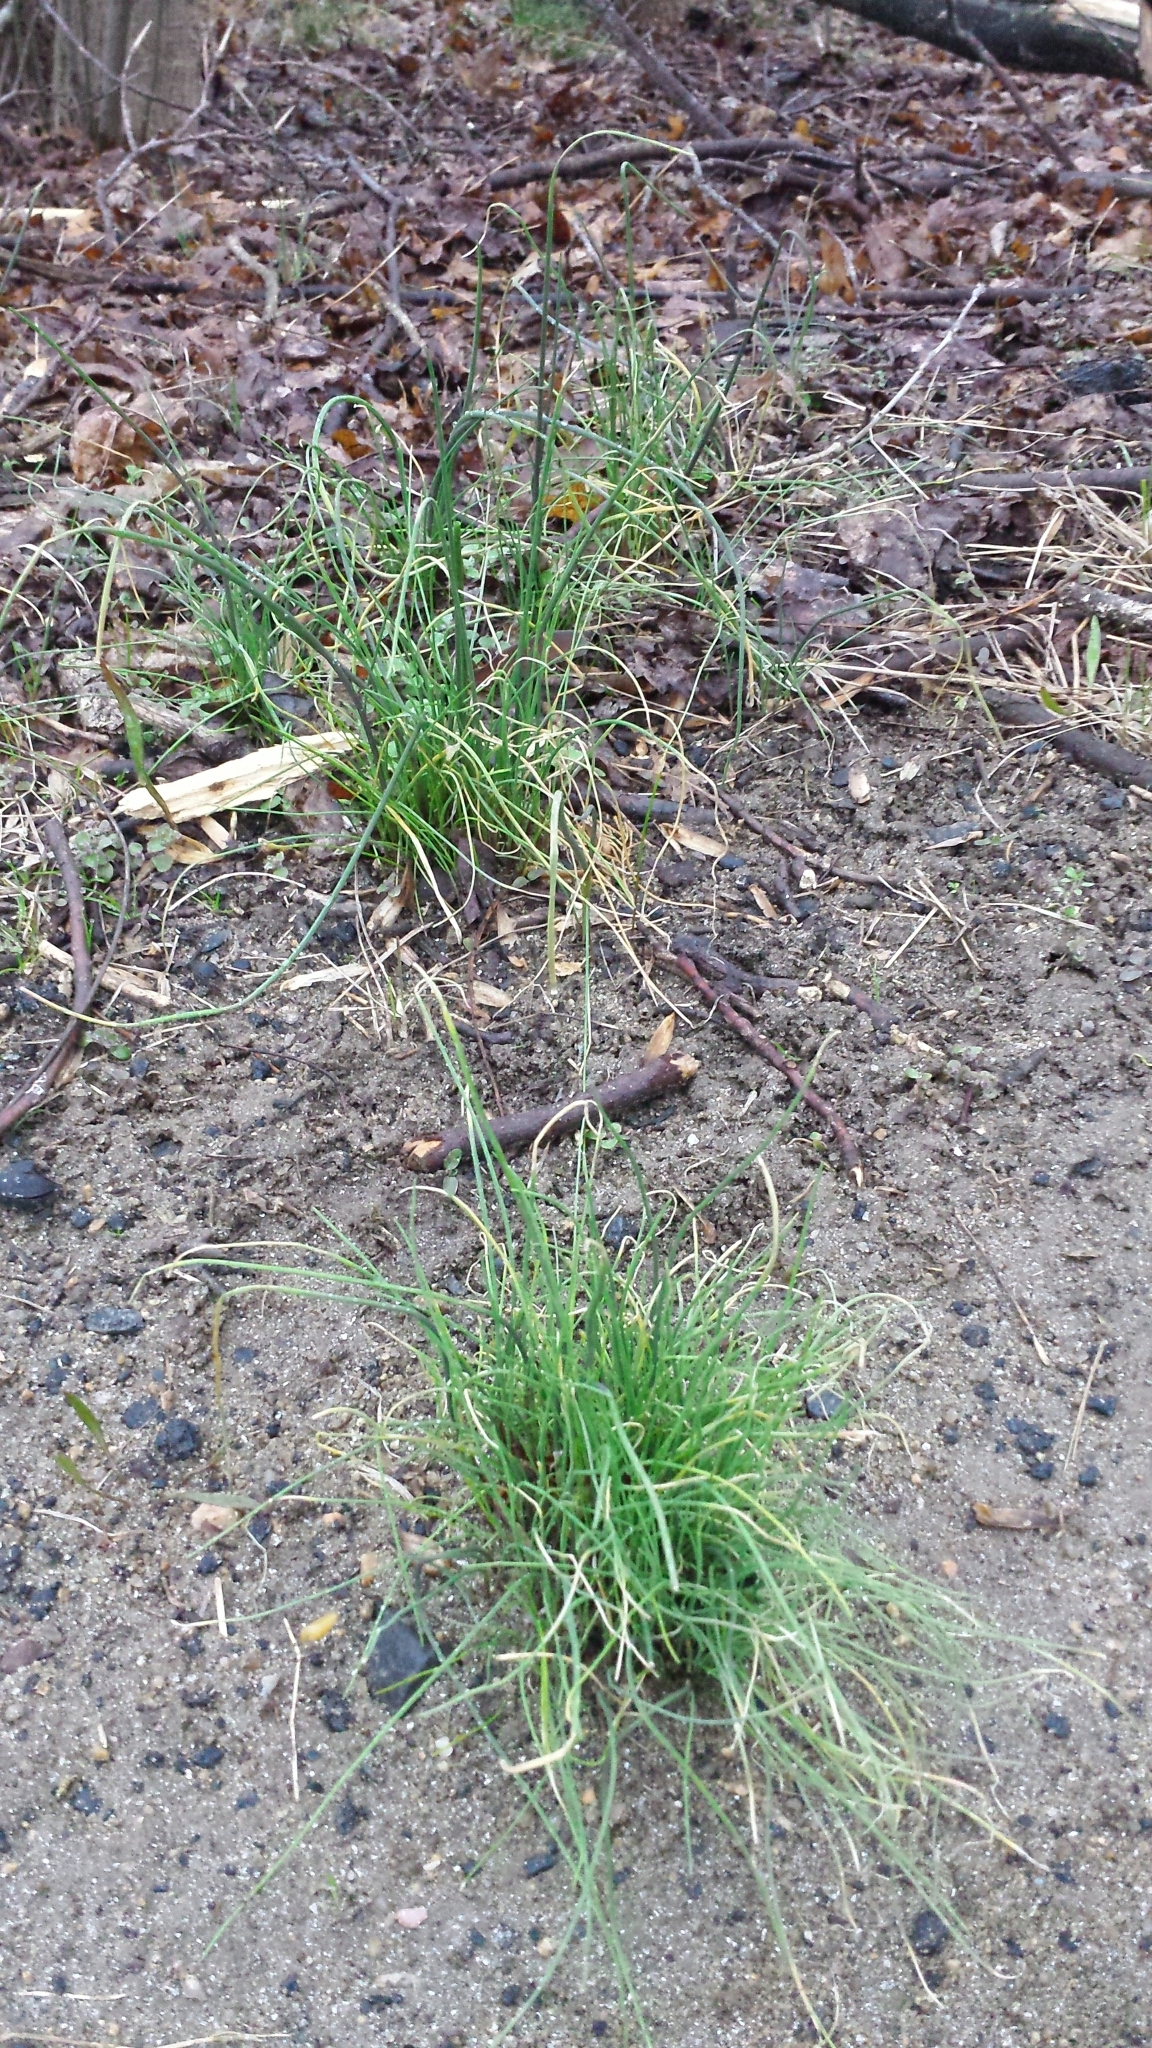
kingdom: Plantae
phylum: Tracheophyta
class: Liliopsida
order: Asparagales
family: Amaryllidaceae
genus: Allium
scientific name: Allium vineale
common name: Crow garlic
